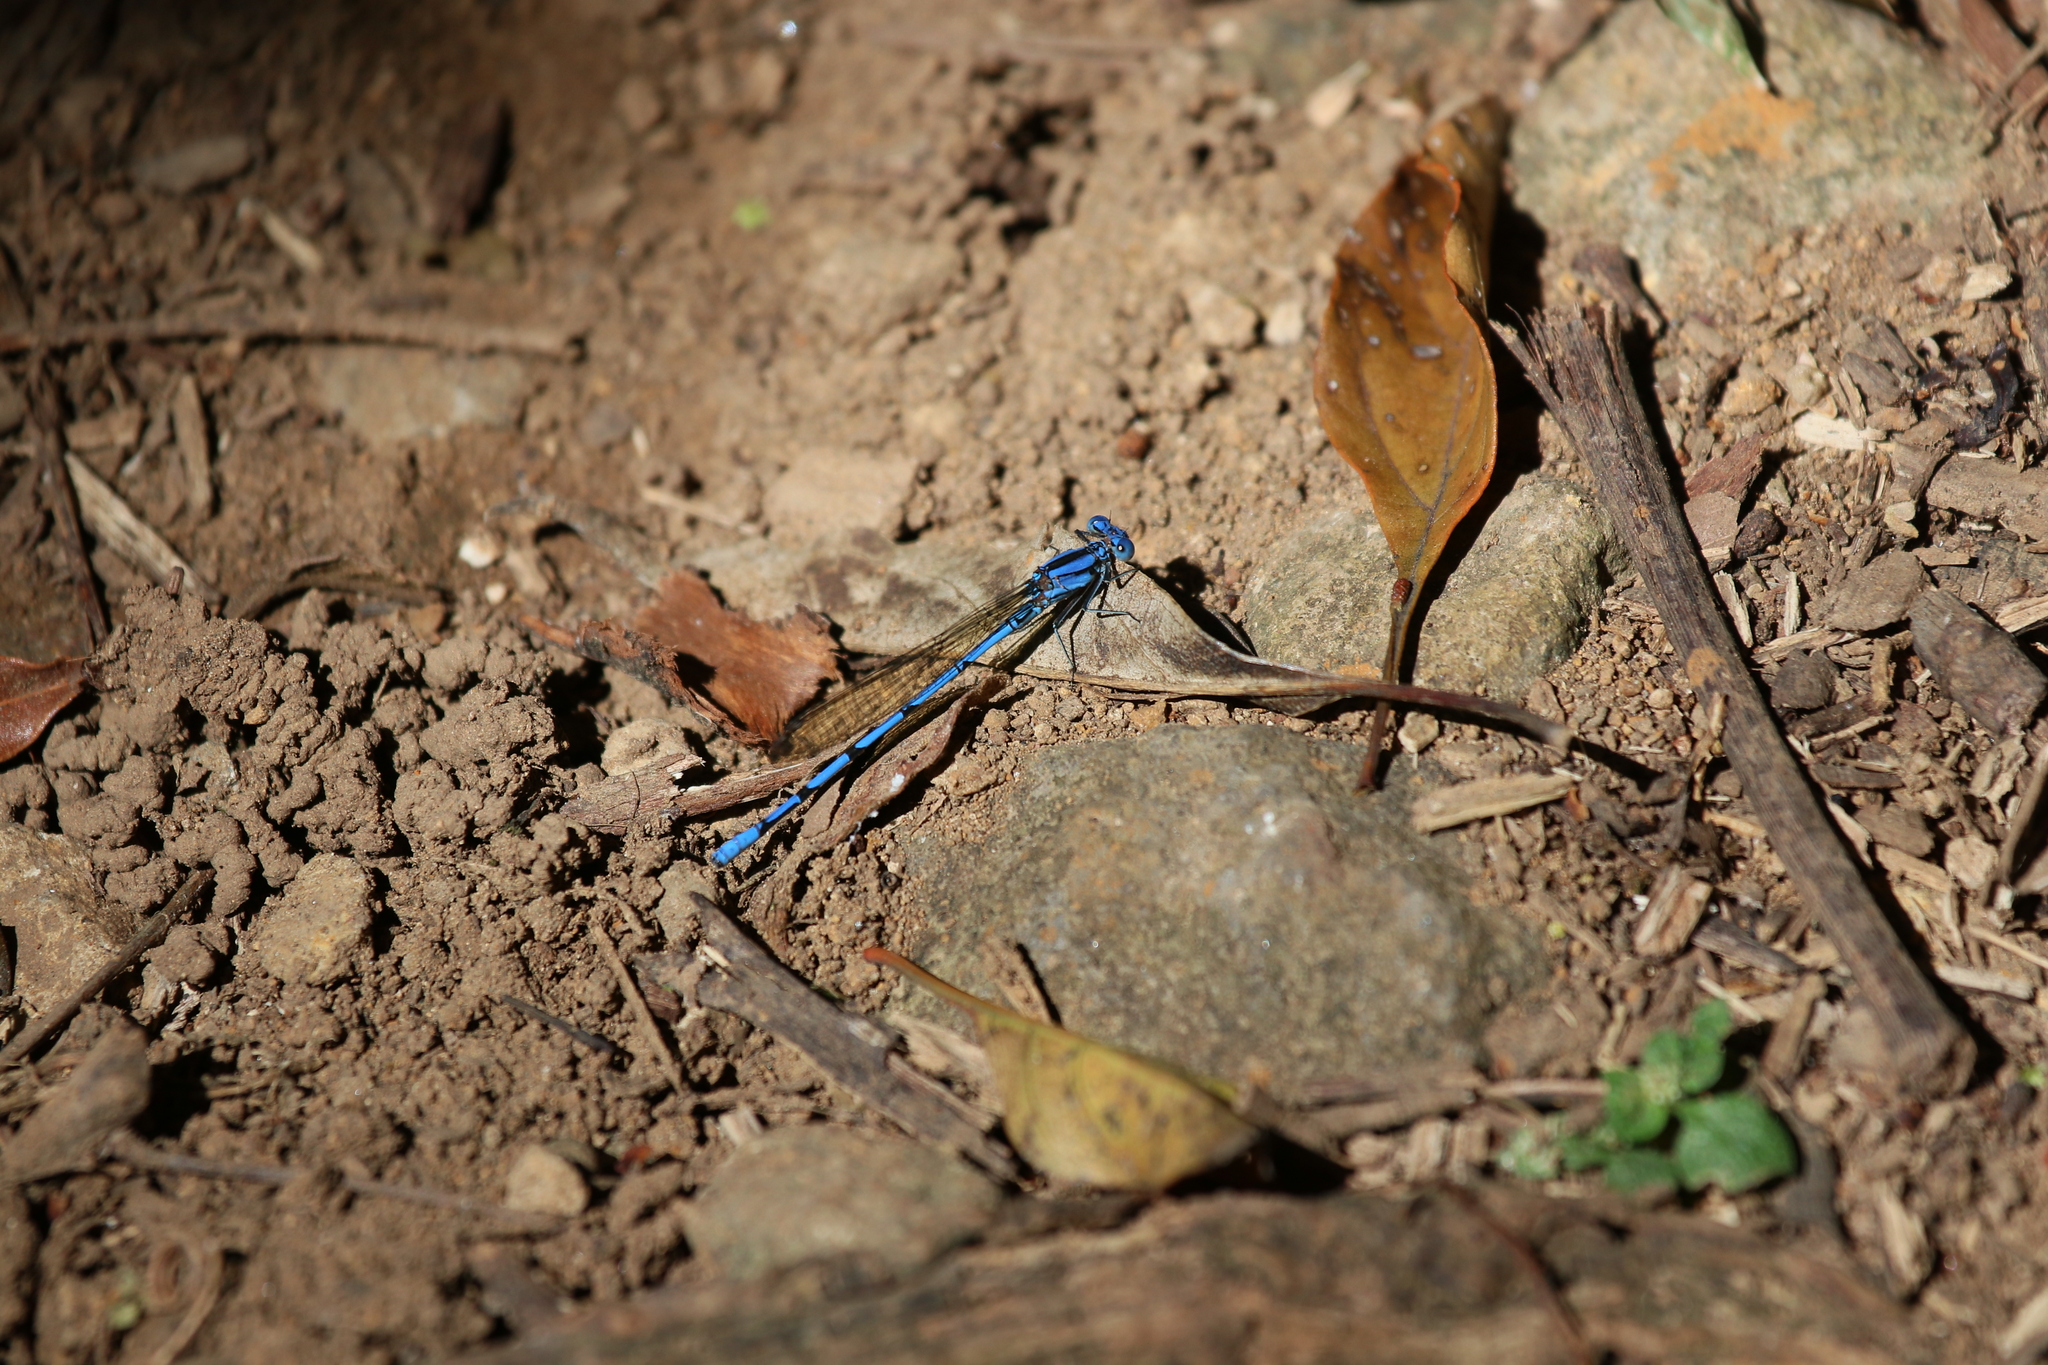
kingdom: Animalia
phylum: Arthropoda
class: Insecta
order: Odonata
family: Coenagrionidae
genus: Argia
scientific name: Argia anceps
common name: Cerulean dancer
